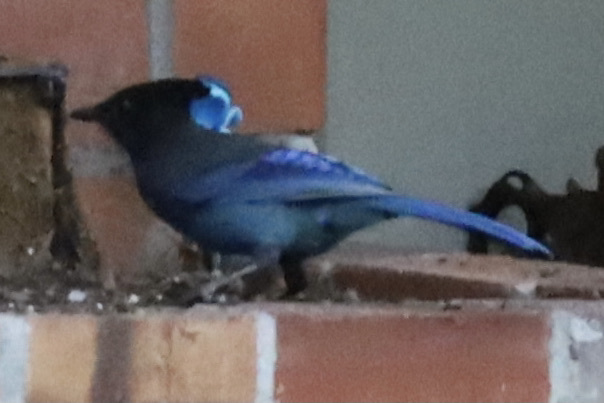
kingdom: Animalia
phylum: Chordata
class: Aves
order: Passeriformes
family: Corvidae
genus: Cyanocitta
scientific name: Cyanocitta stelleri
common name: Steller's jay
